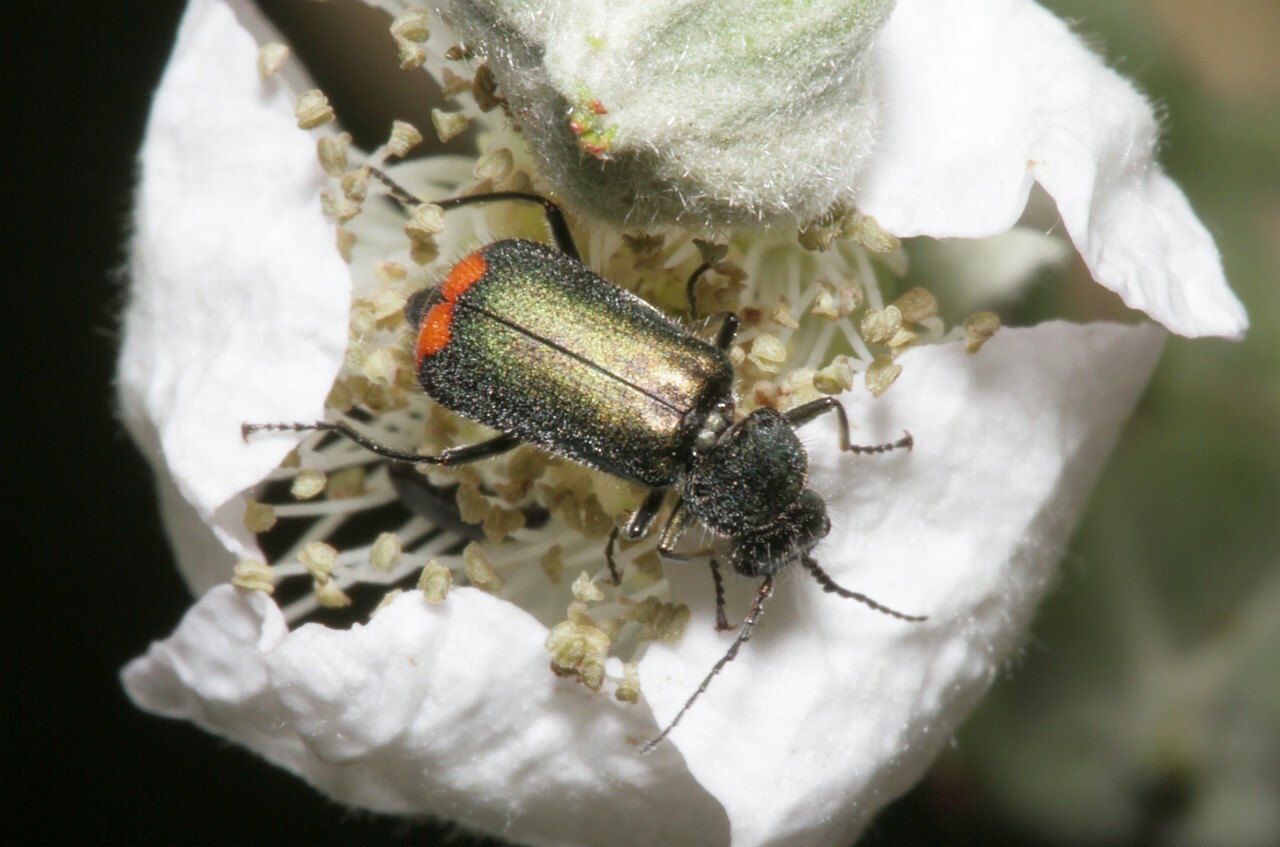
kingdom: Animalia
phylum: Arthropoda
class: Insecta
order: Coleoptera
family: Melyridae
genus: Malachius
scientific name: Malachius bipustulatus
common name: Malachite beetle
